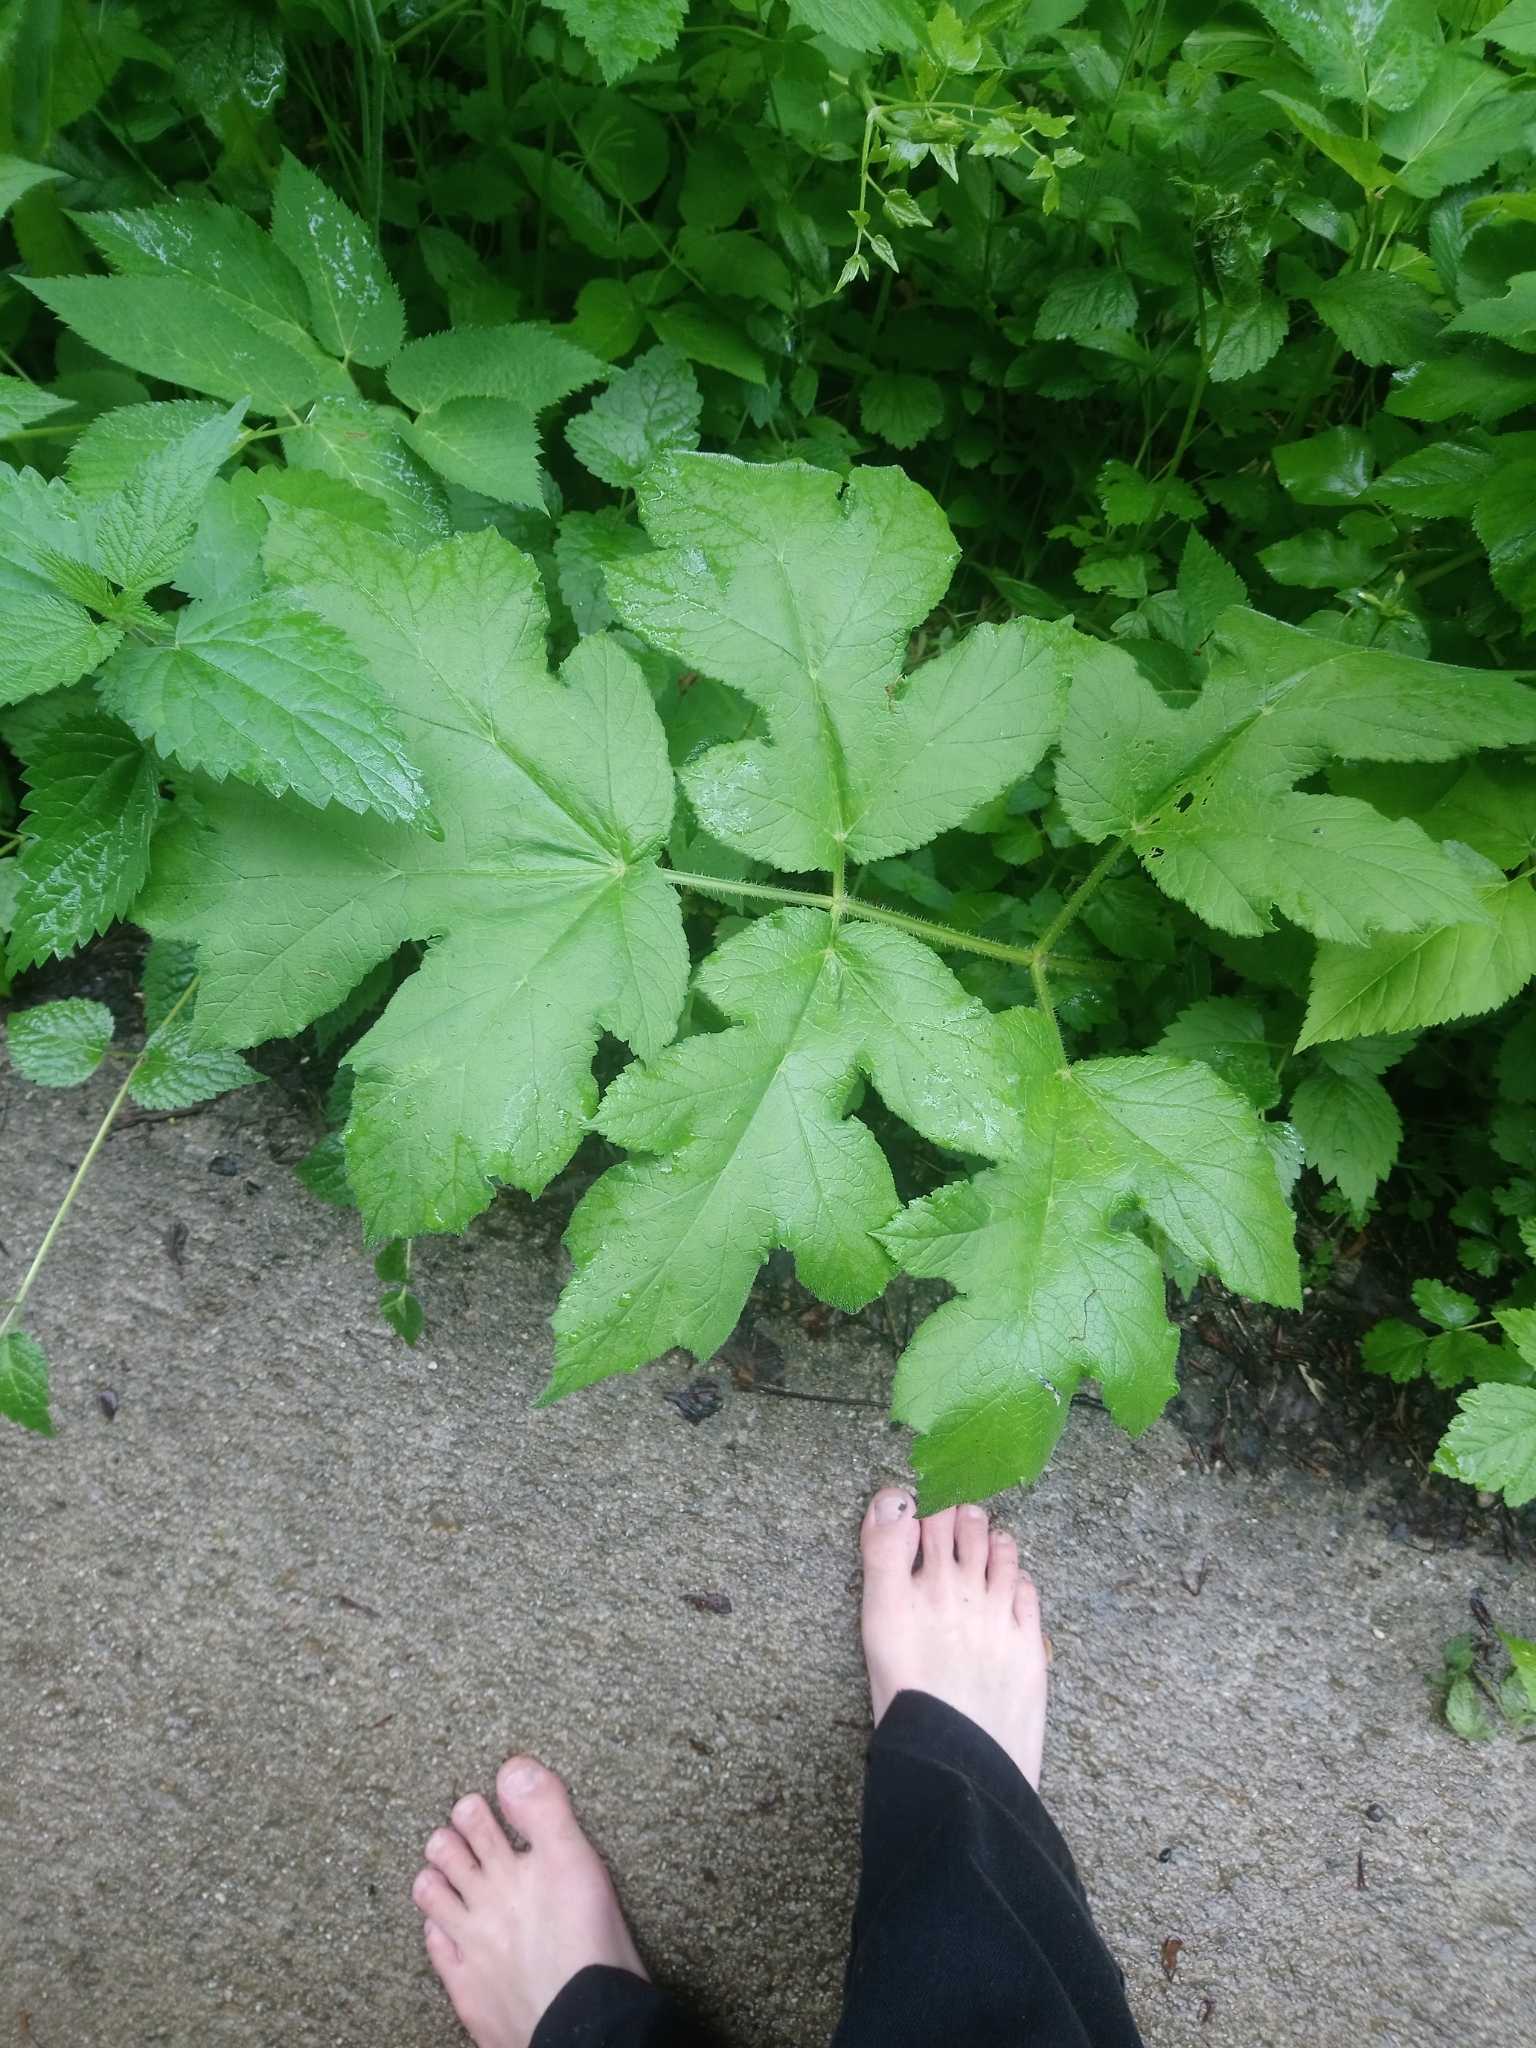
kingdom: Plantae
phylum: Tracheophyta
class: Magnoliopsida
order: Apiales
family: Apiaceae
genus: Heracleum
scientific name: Heracleum sphondylium
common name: Hogweed
